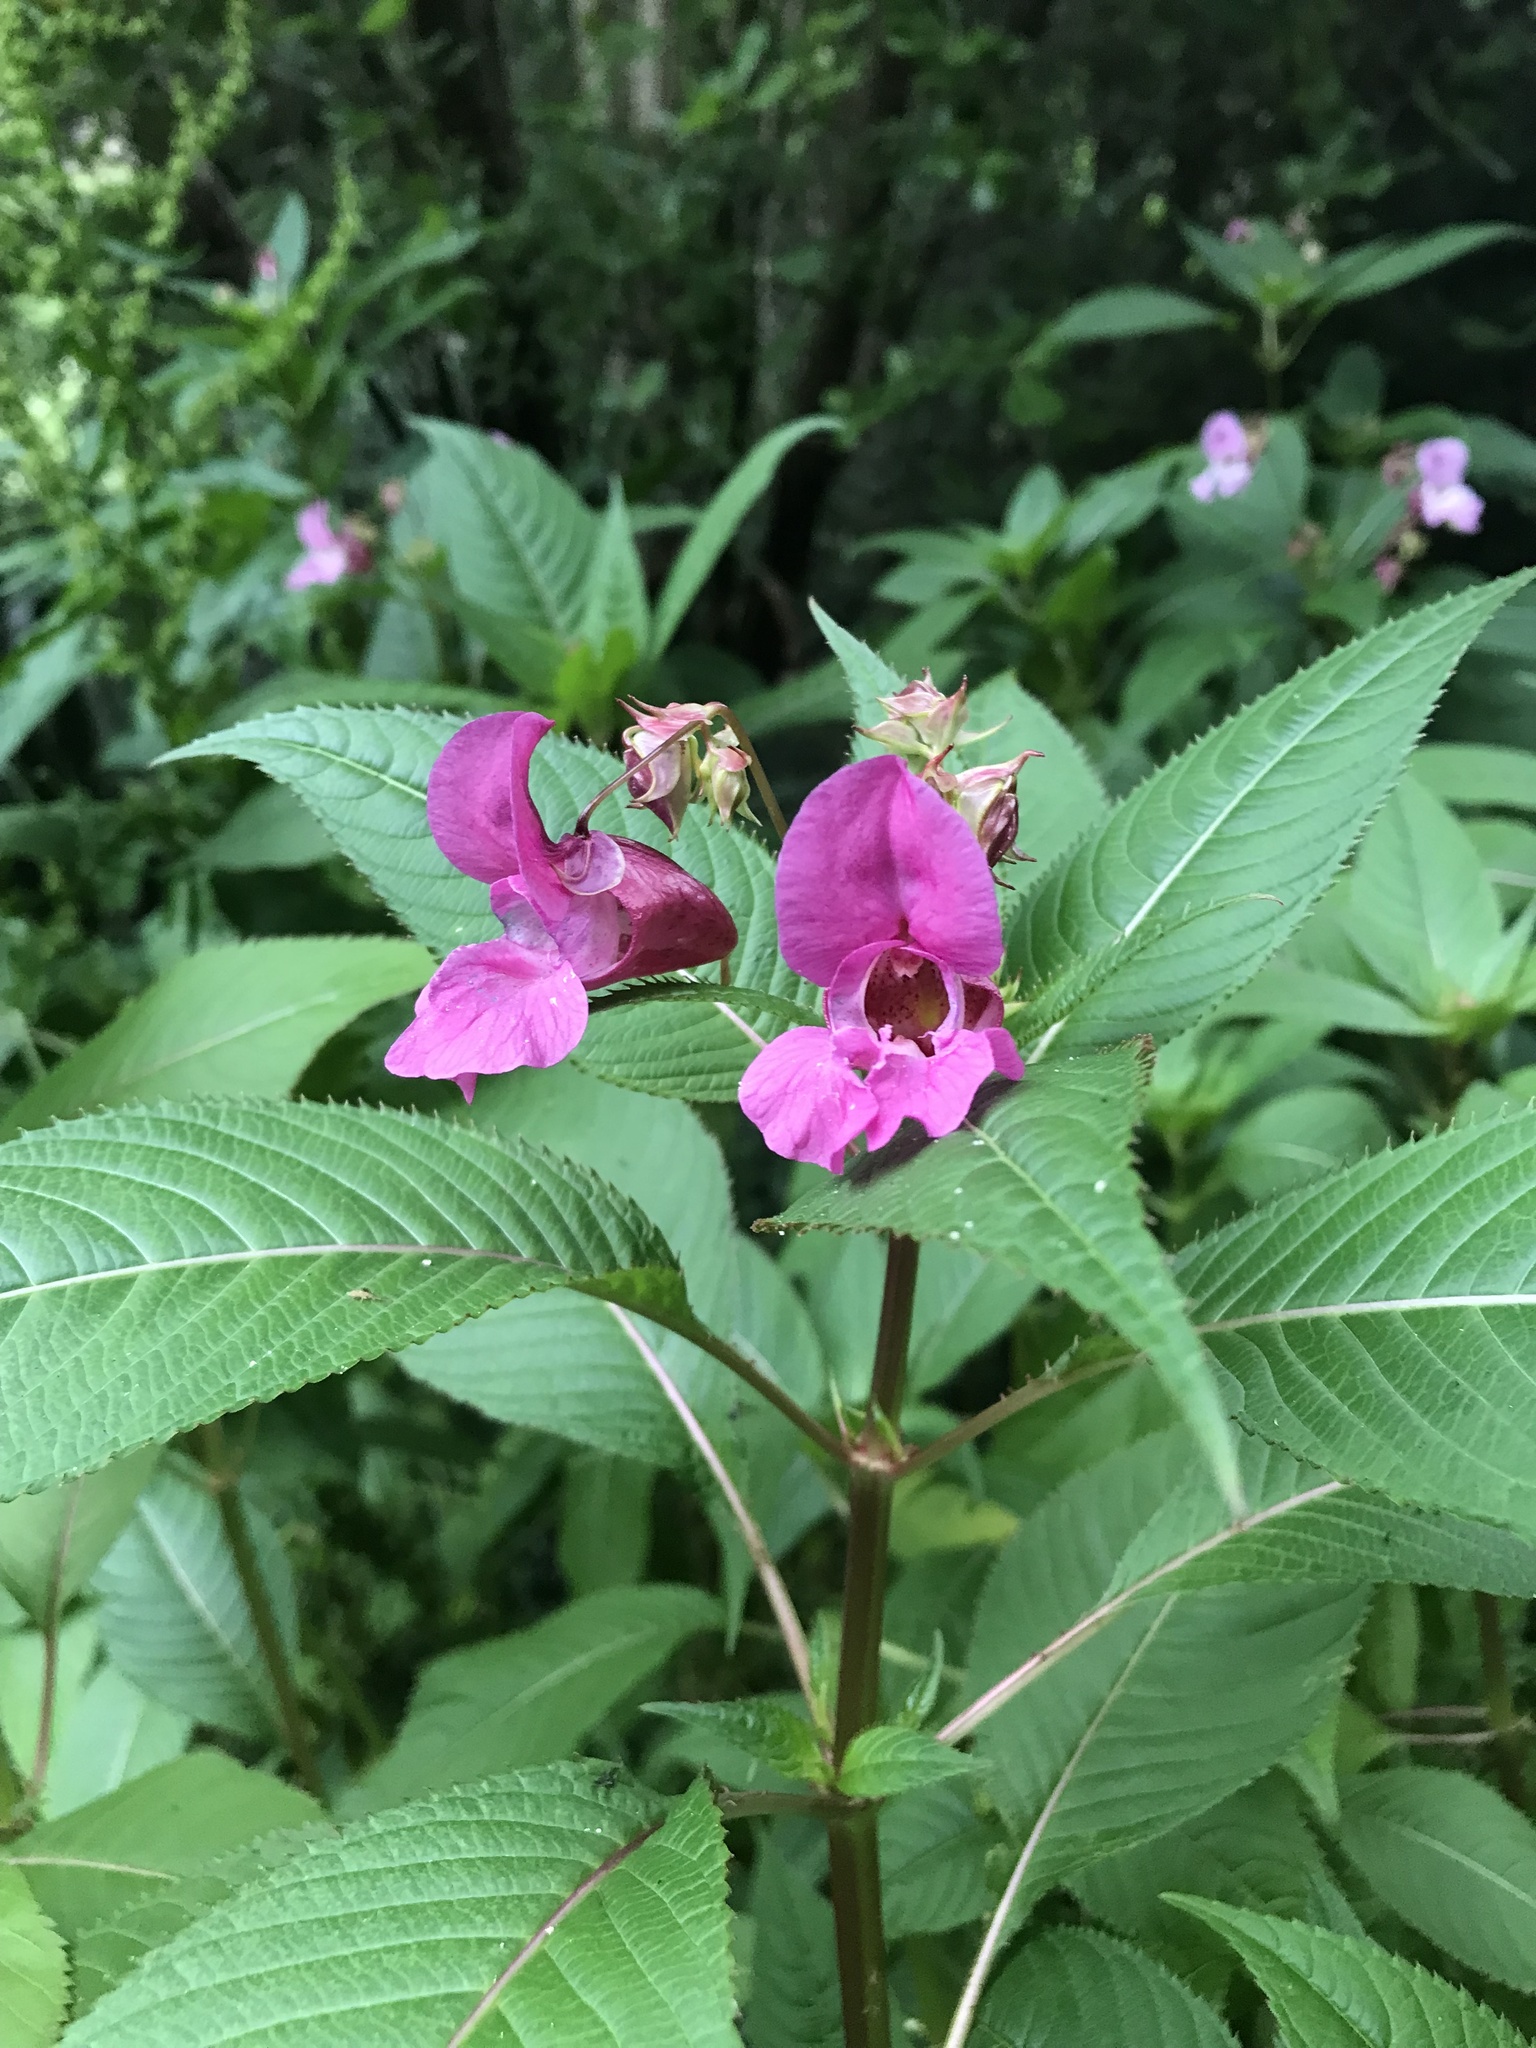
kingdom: Plantae
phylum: Tracheophyta
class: Magnoliopsida
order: Ericales
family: Balsaminaceae
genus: Impatiens
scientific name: Impatiens glandulifera
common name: Himalayan balsam
